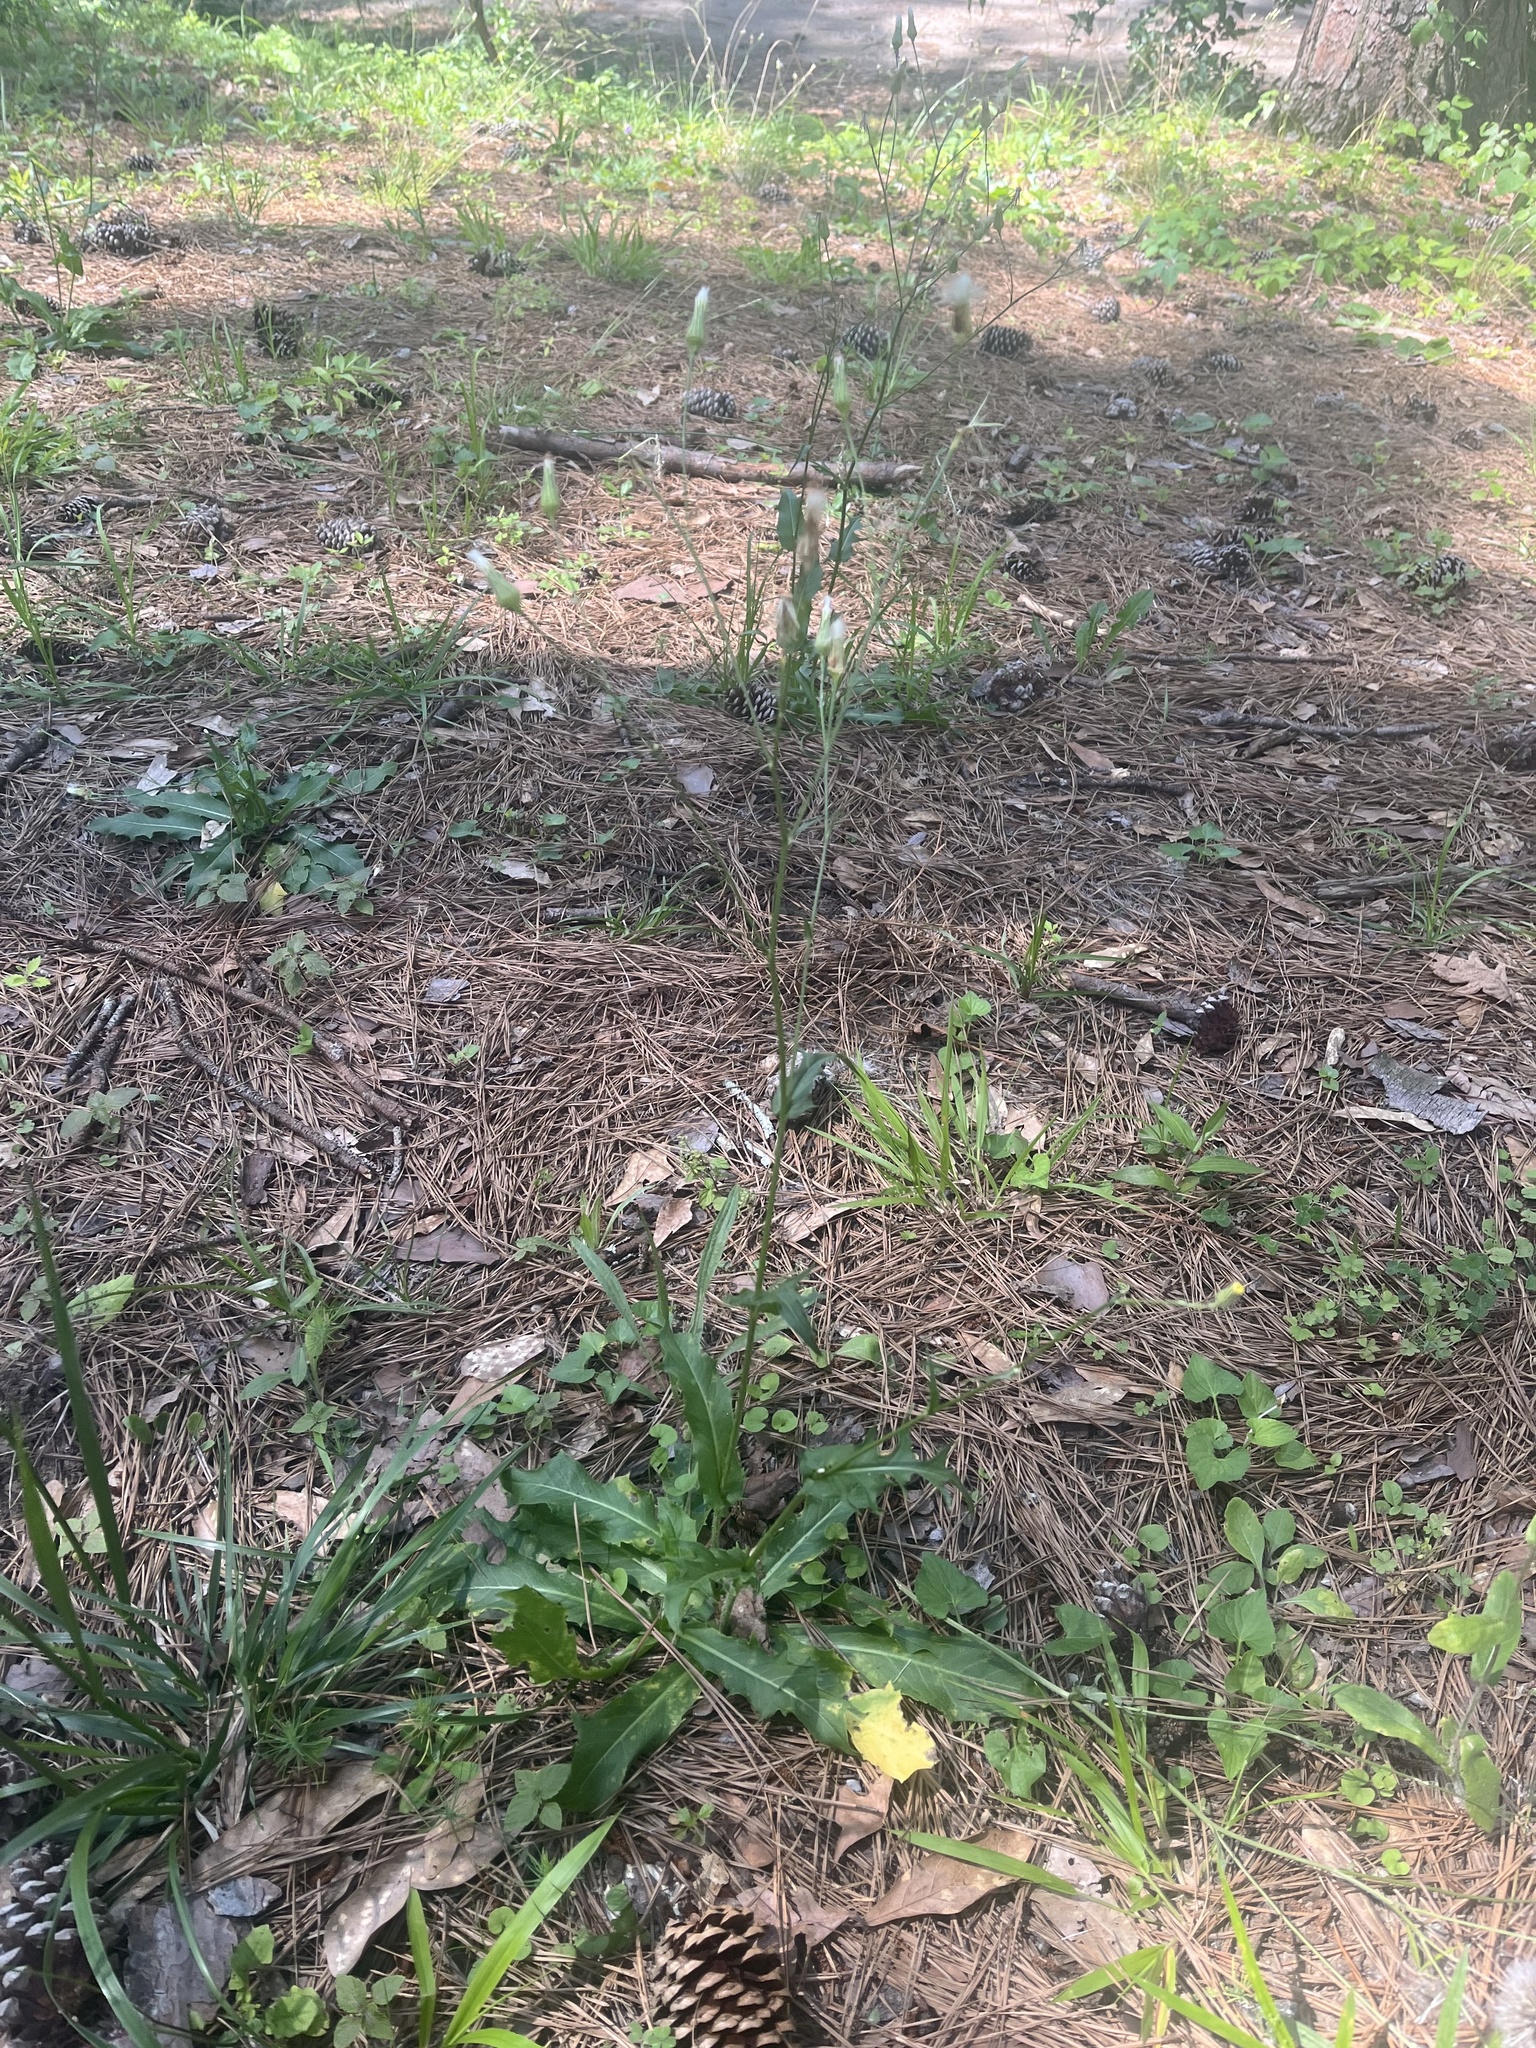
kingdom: Plantae
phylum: Tracheophyta
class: Magnoliopsida
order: Asterales
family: Asteraceae
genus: Hypochaeris
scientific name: Hypochaeris chillensis
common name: Brazilian cat's ear
